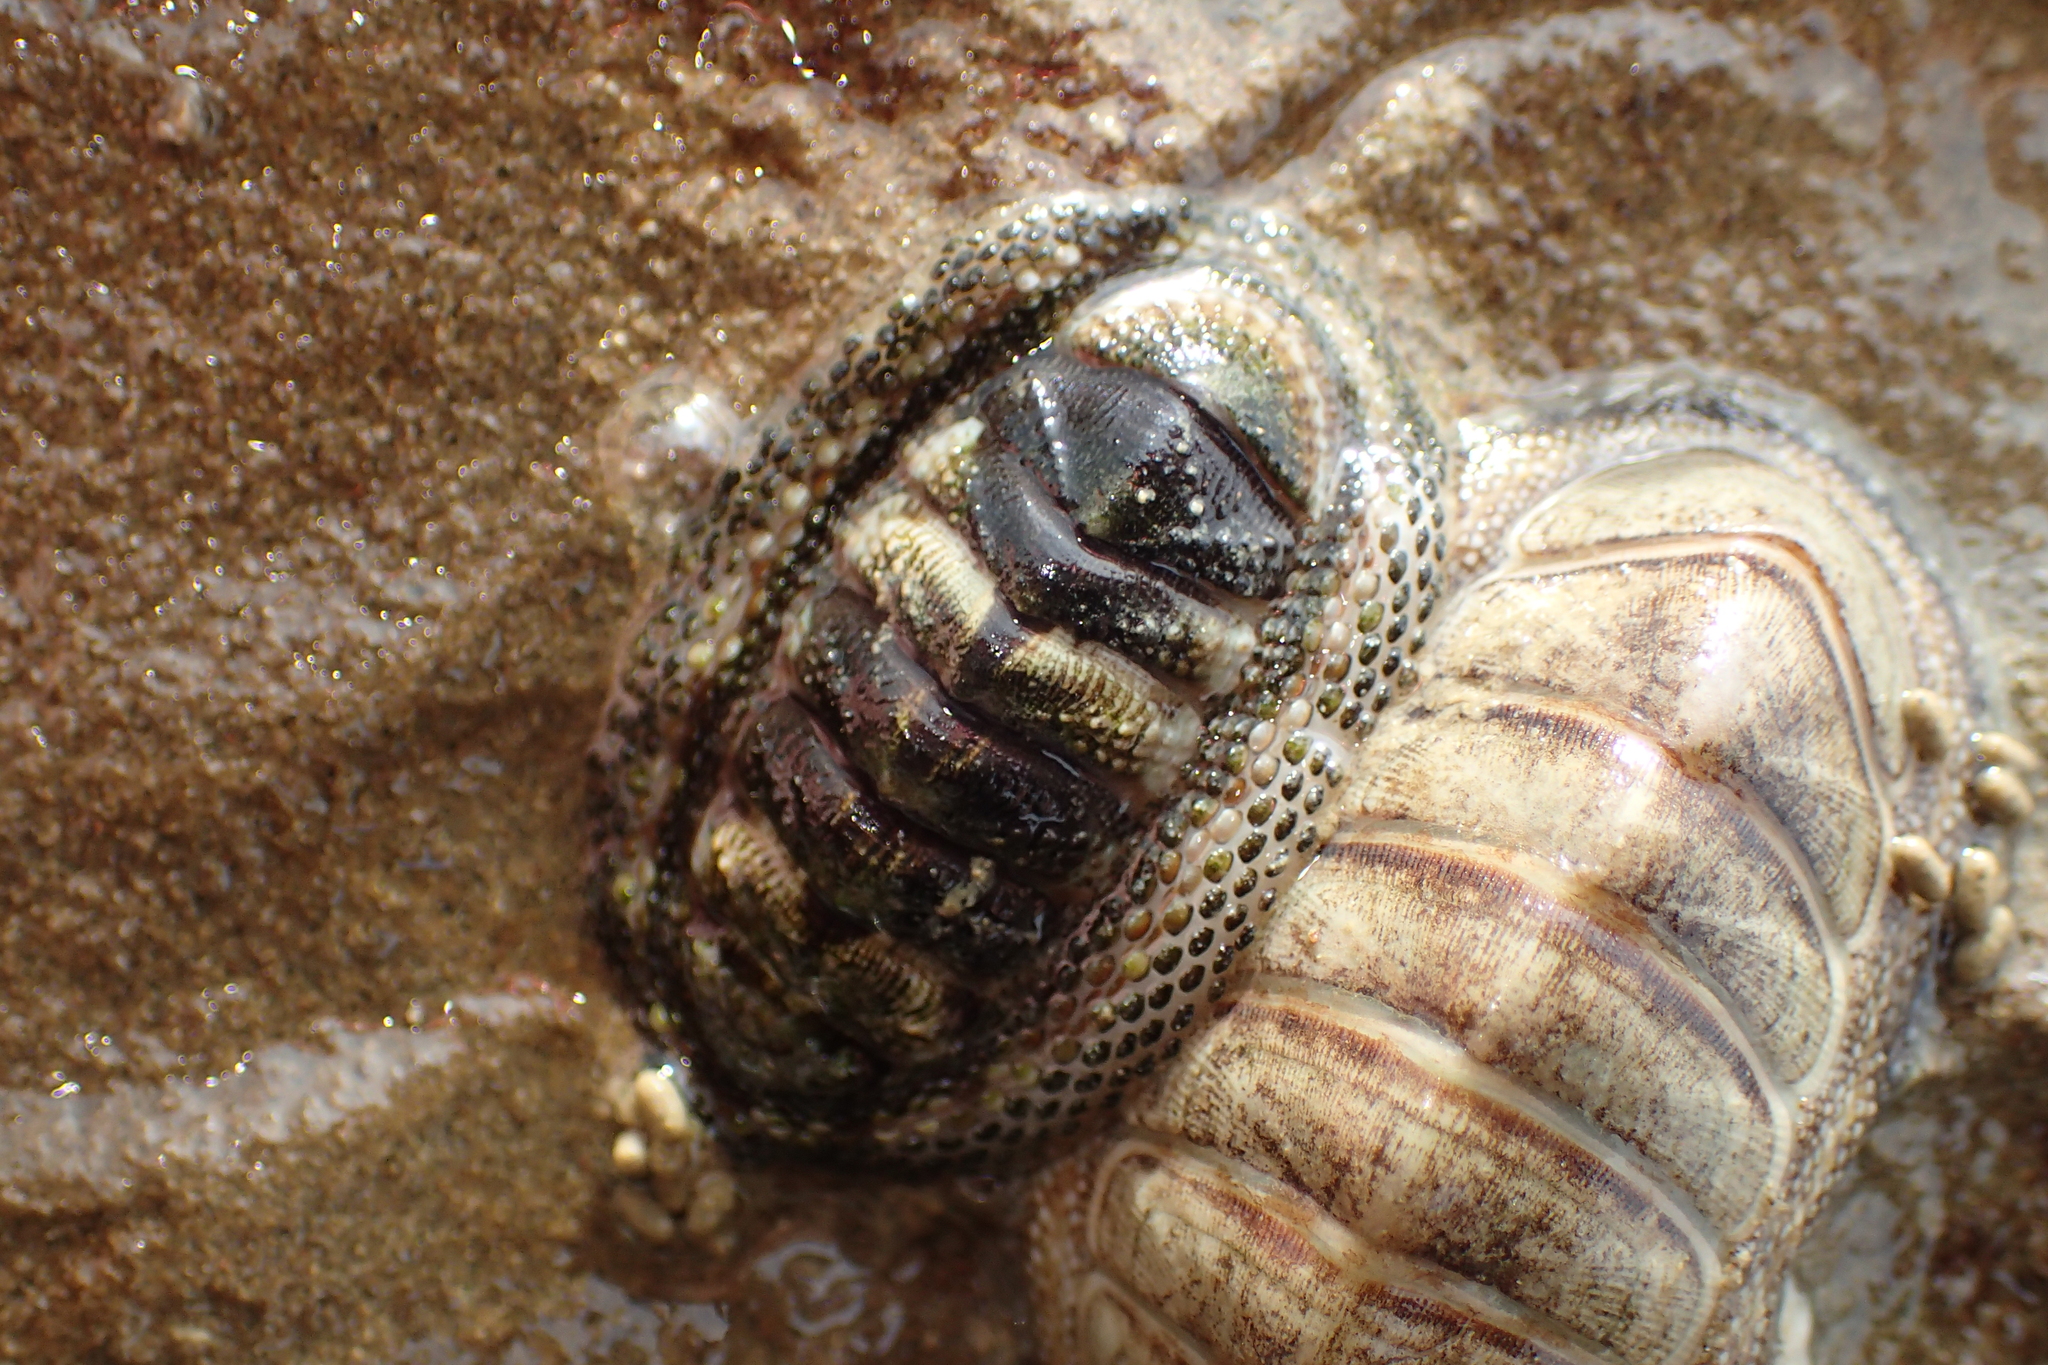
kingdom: Animalia
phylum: Mollusca
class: Polyplacophora
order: Chitonida
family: Chitonidae
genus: Sypharochiton
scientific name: Sypharochiton pelliserpentis
